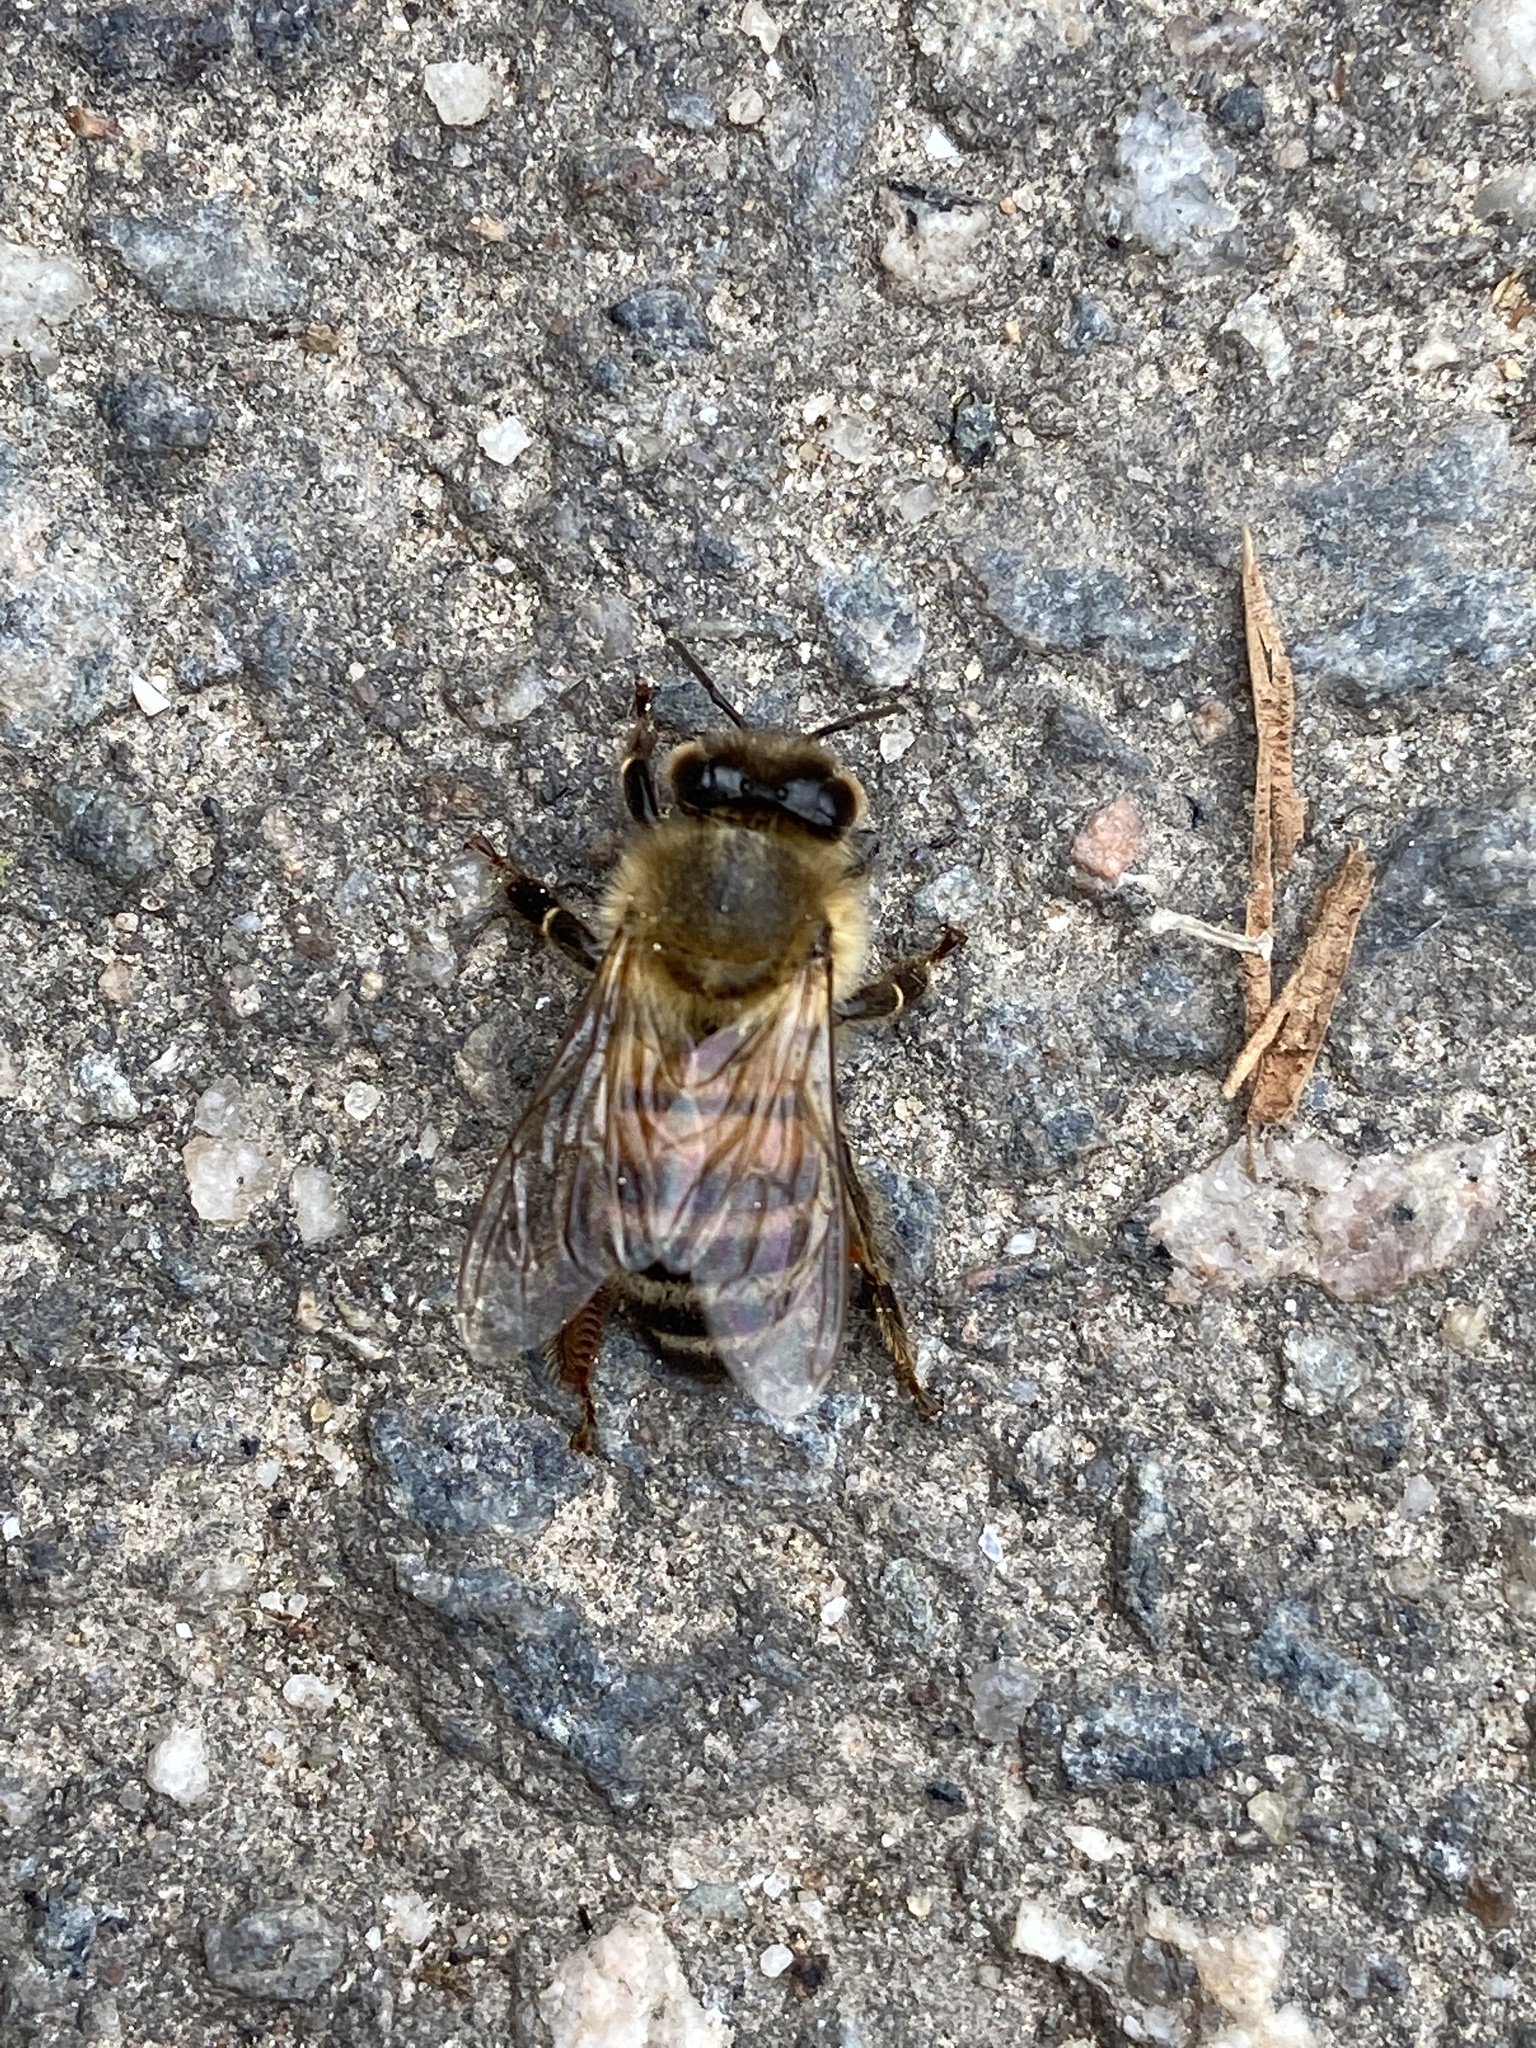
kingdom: Animalia
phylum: Arthropoda
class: Insecta
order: Hymenoptera
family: Apidae
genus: Apis
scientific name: Apis mellifera
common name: Honey bee
